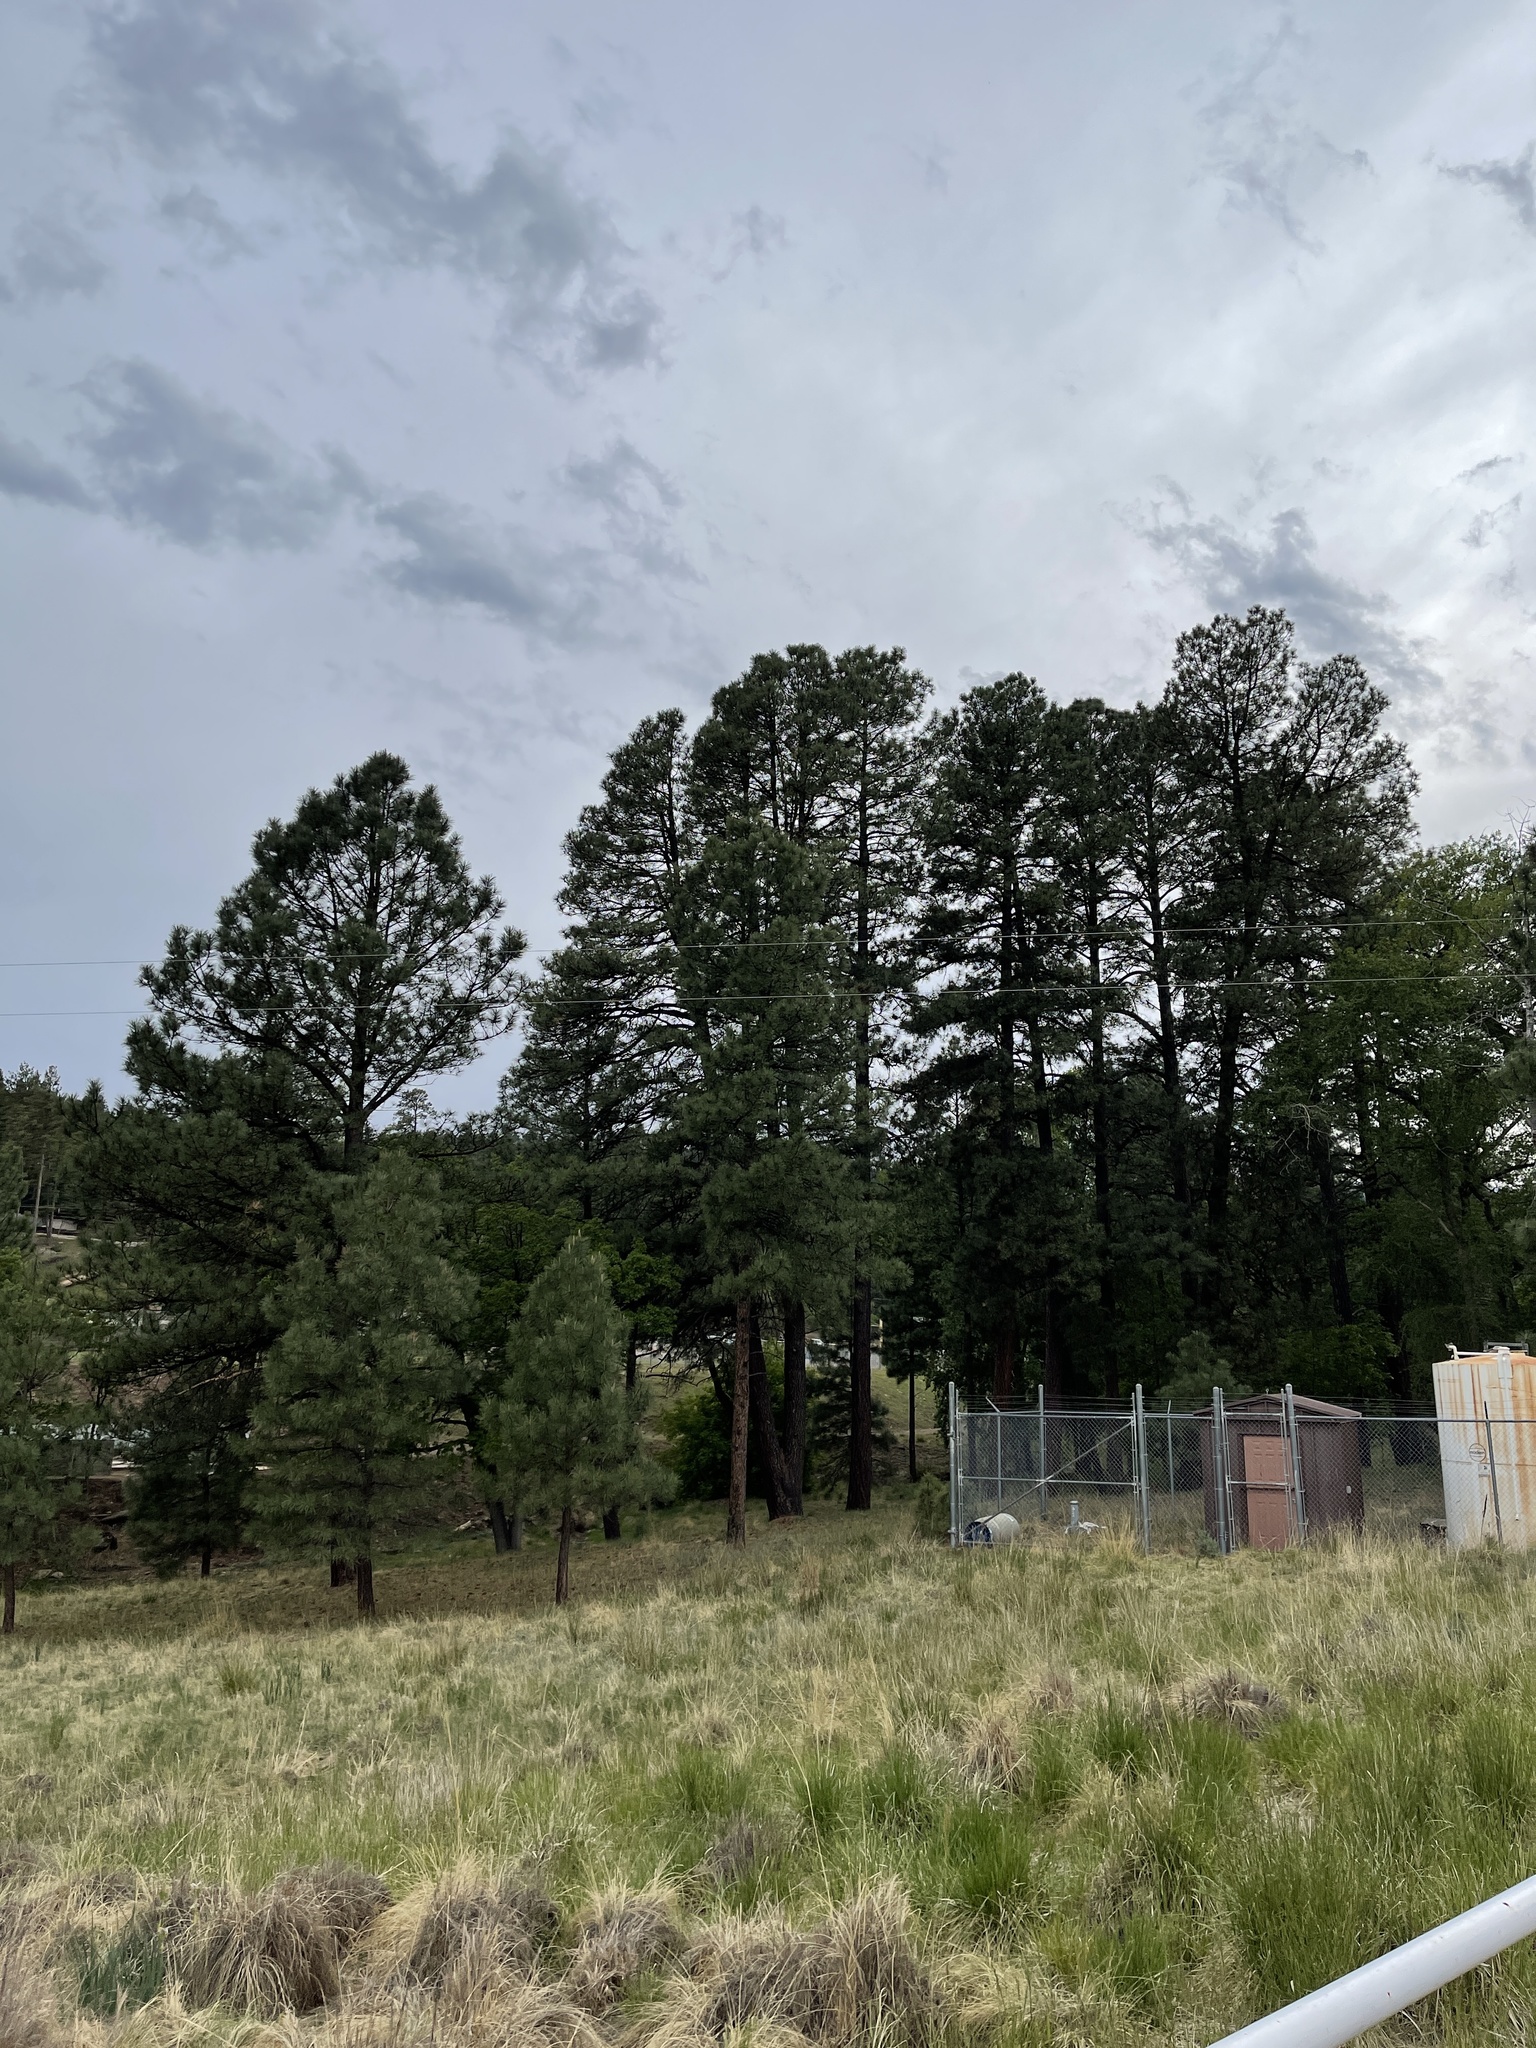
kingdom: Plantae
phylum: Tracheophyta
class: Pinopsida
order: Pinales
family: Pinaceae
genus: Pinus
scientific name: Pinus ponderosa
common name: Western yellow-pine
